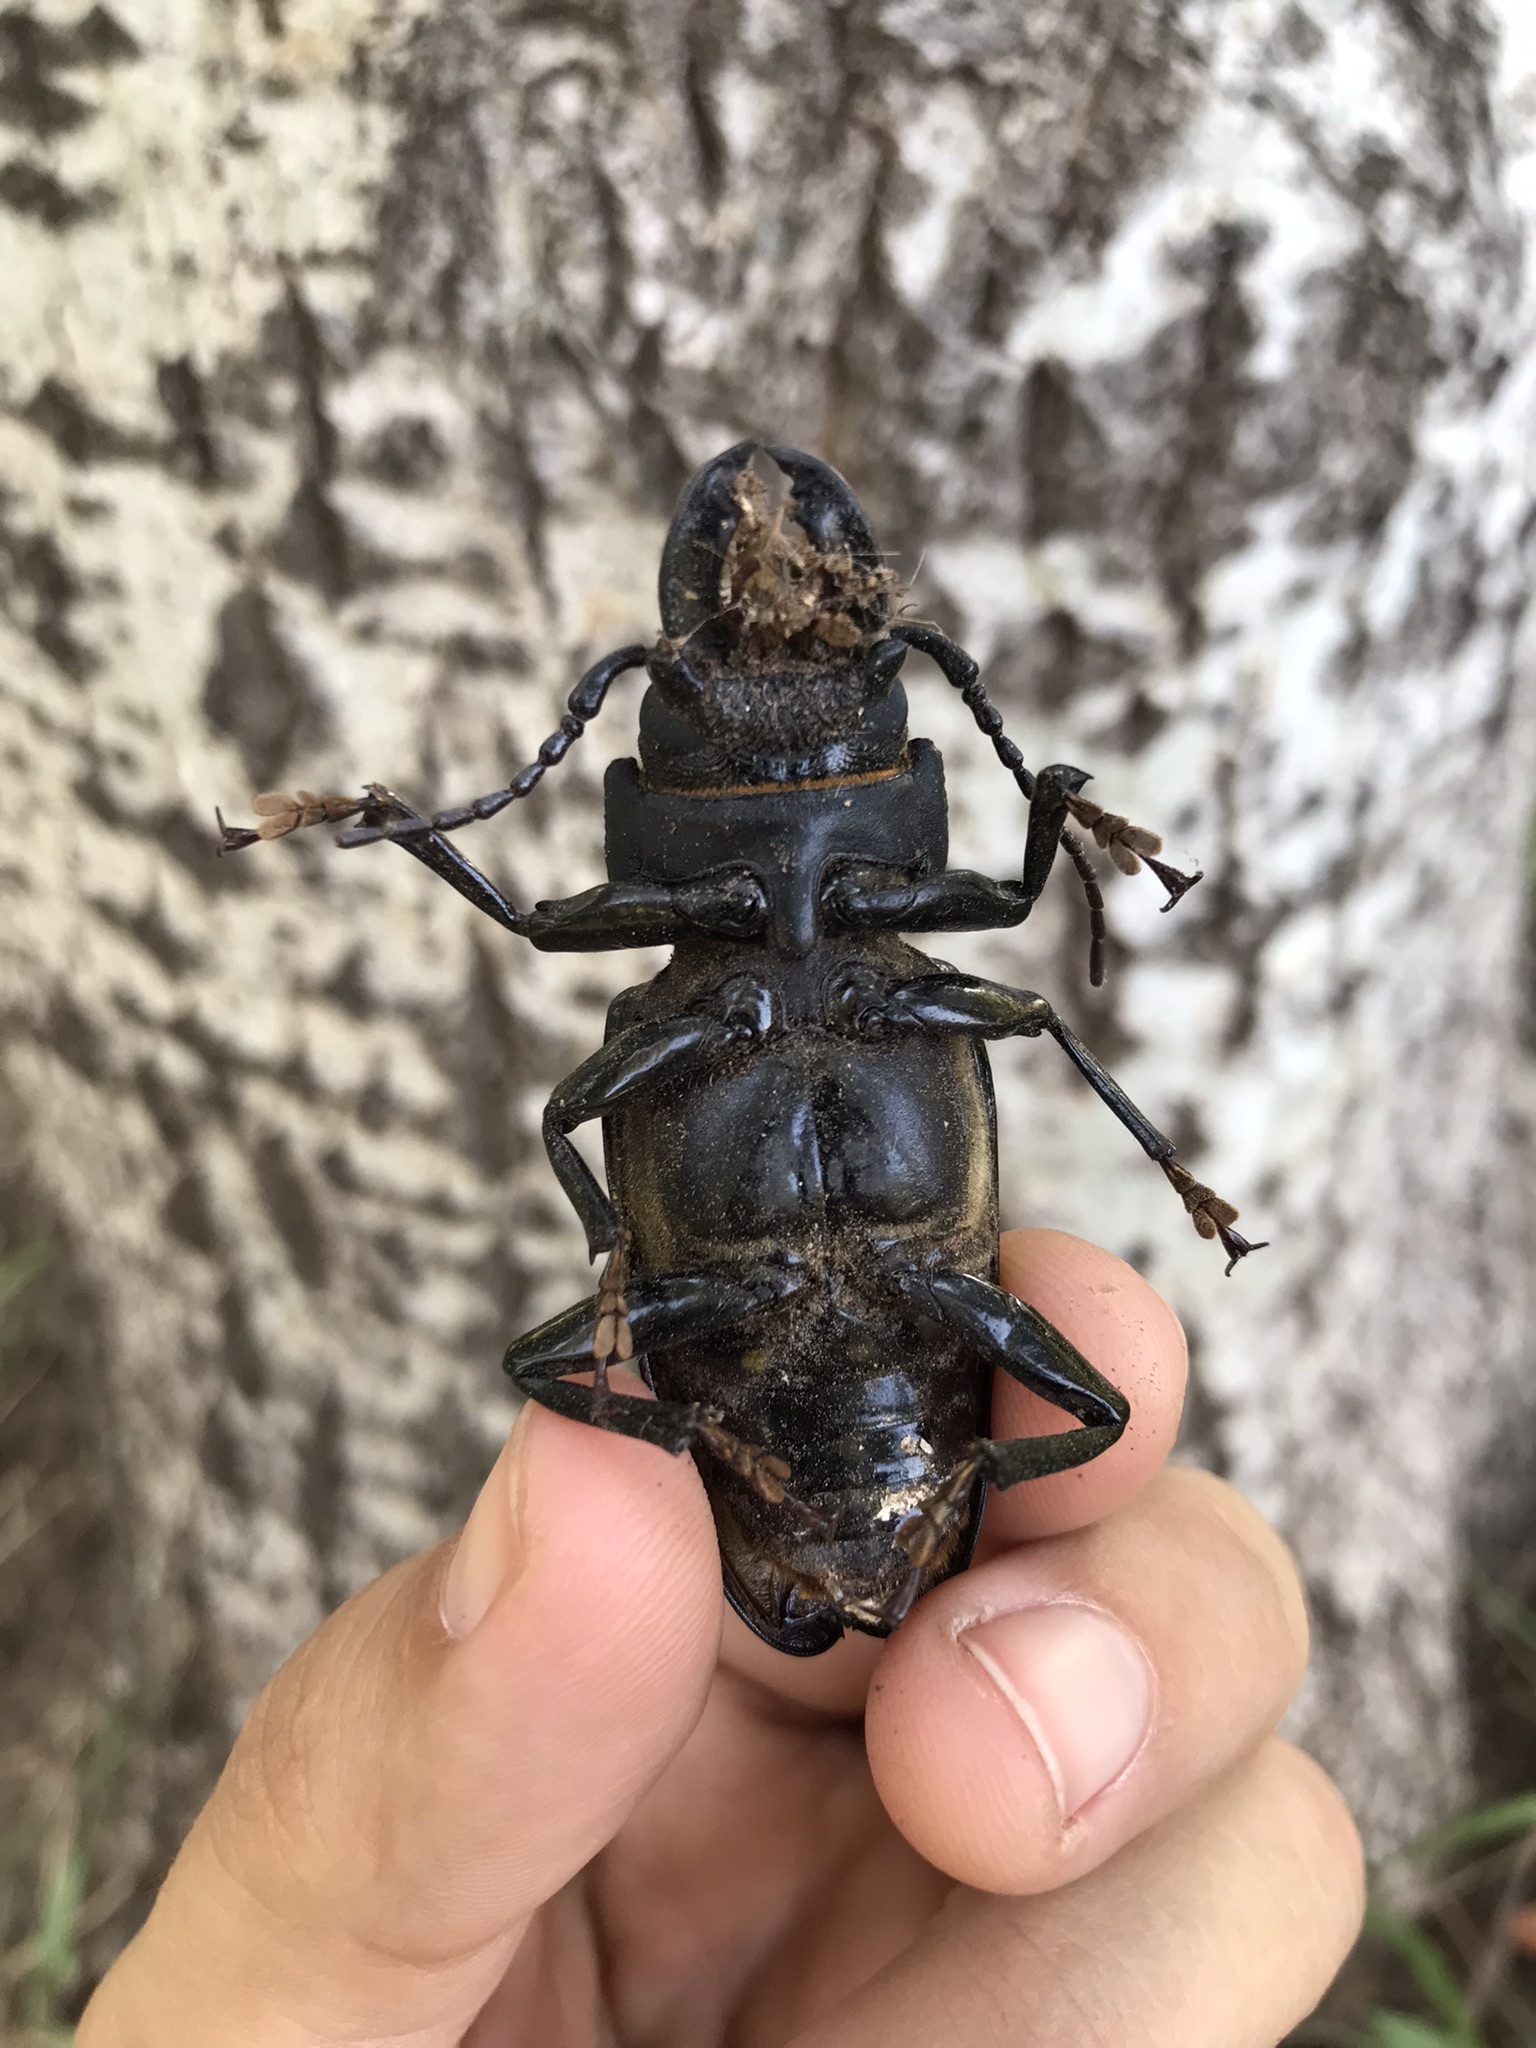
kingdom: Animalia
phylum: Arthropoda
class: Insecta
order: Coleoptera
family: Cerambycidae
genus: Mallodon
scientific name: Mallodon dasystomum
